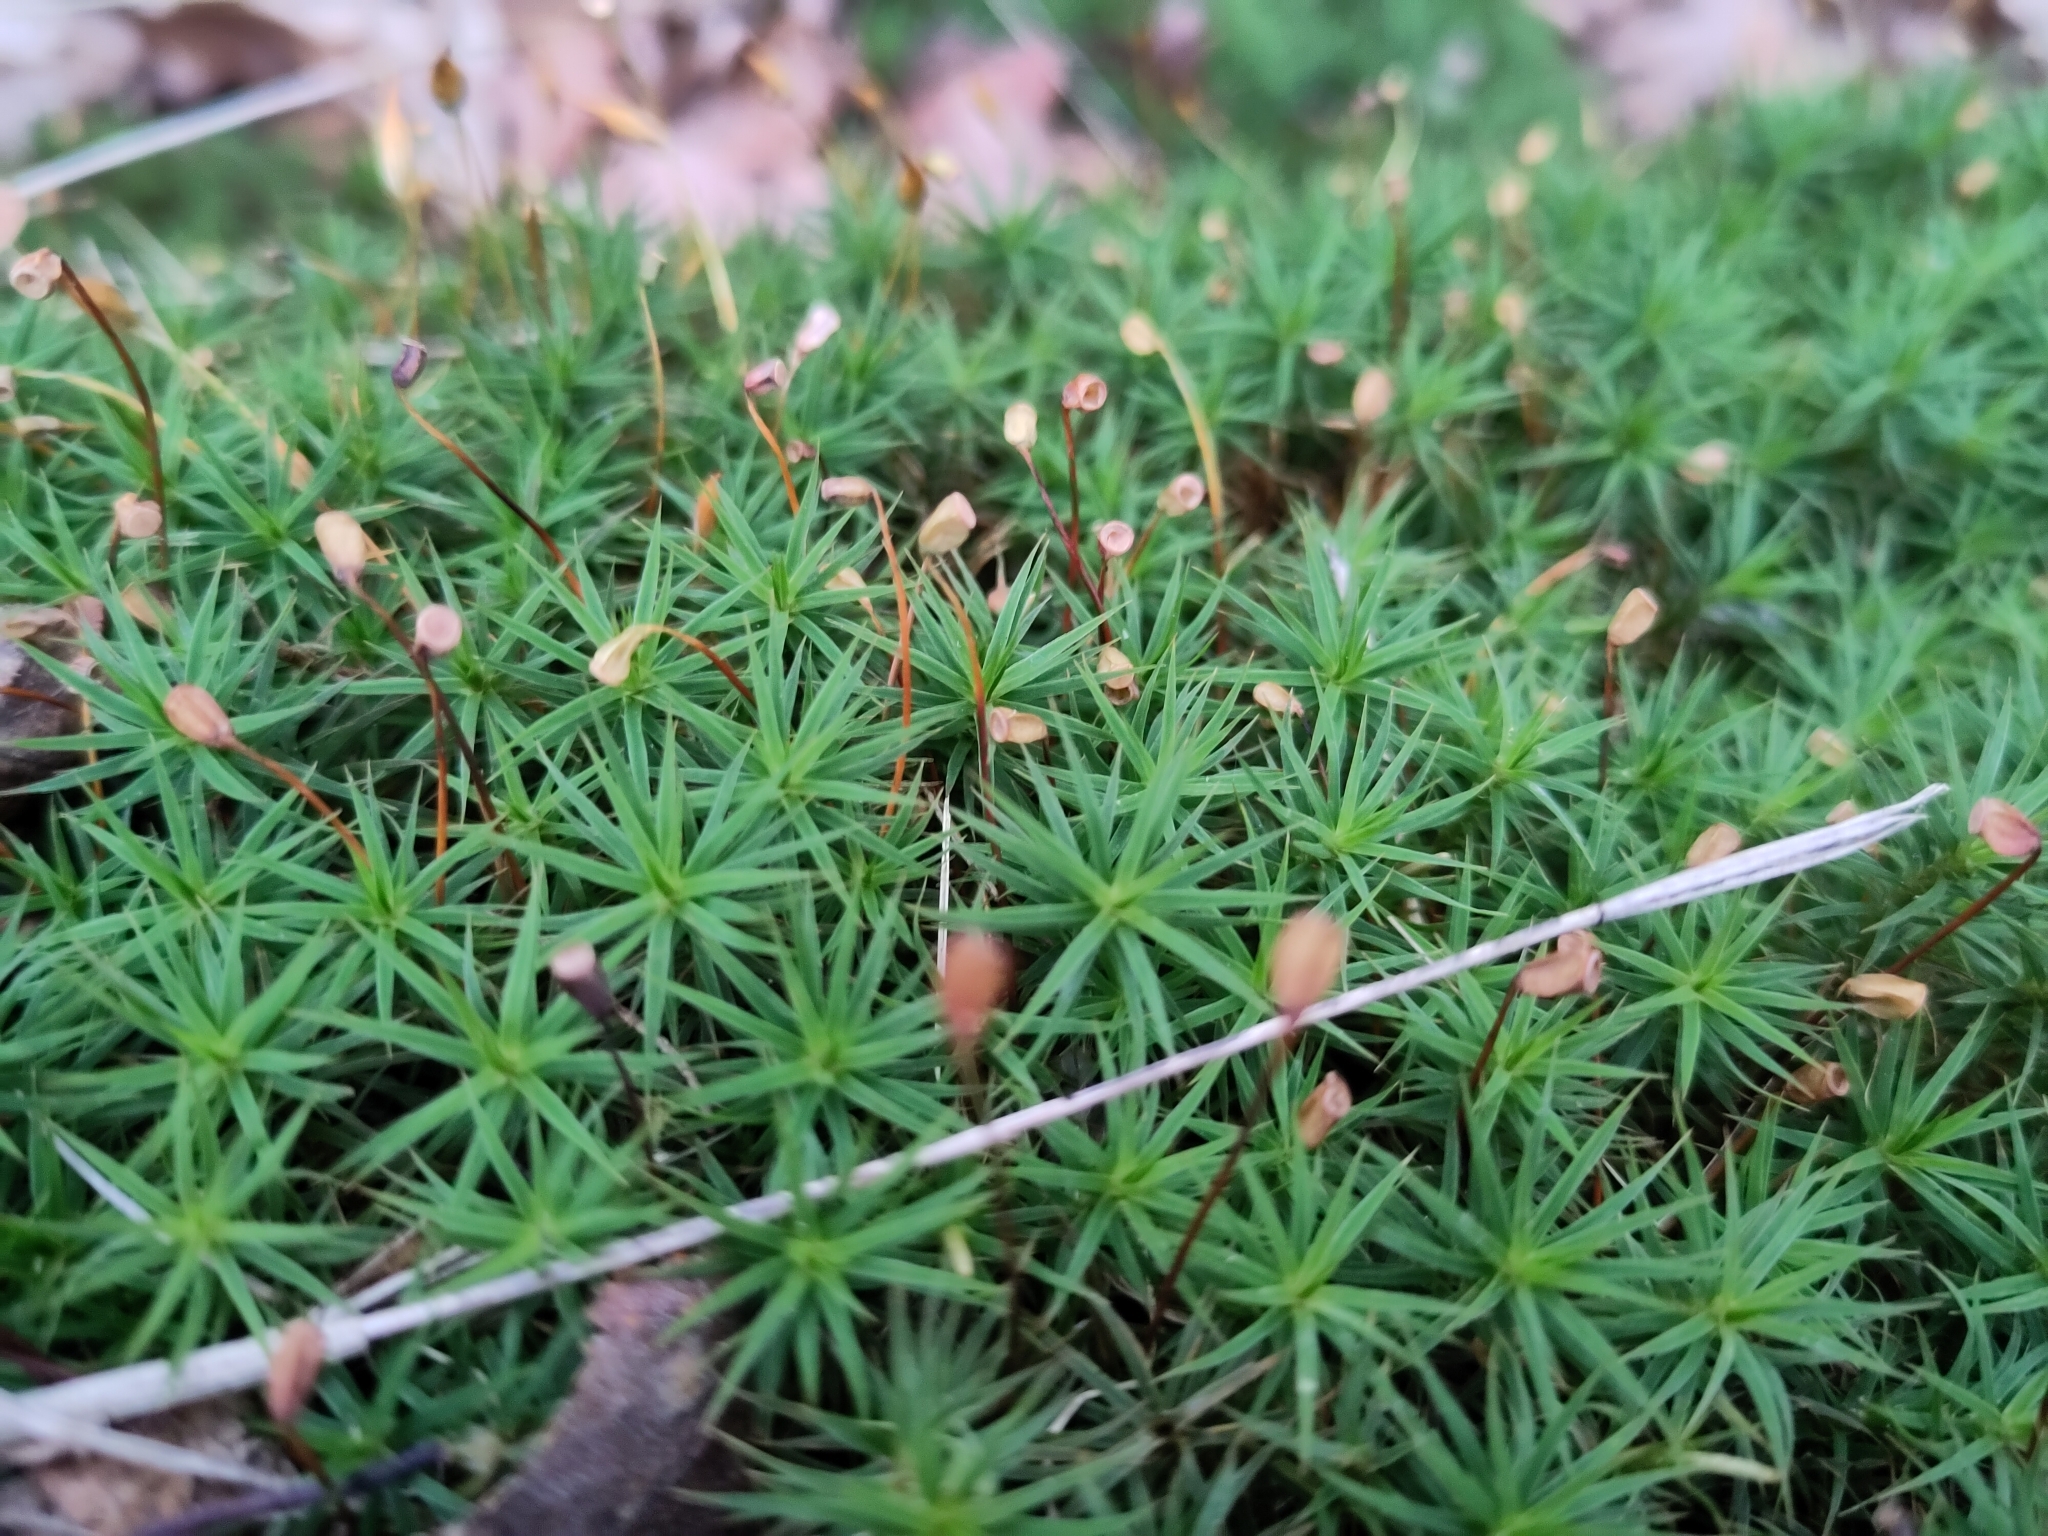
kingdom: Plantae
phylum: Bryophyta
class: Polytrichopsida
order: Polytrichales
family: Polytrichaceae
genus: Polytrichum
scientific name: Polytrichum formosum
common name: Bank haircap moss
